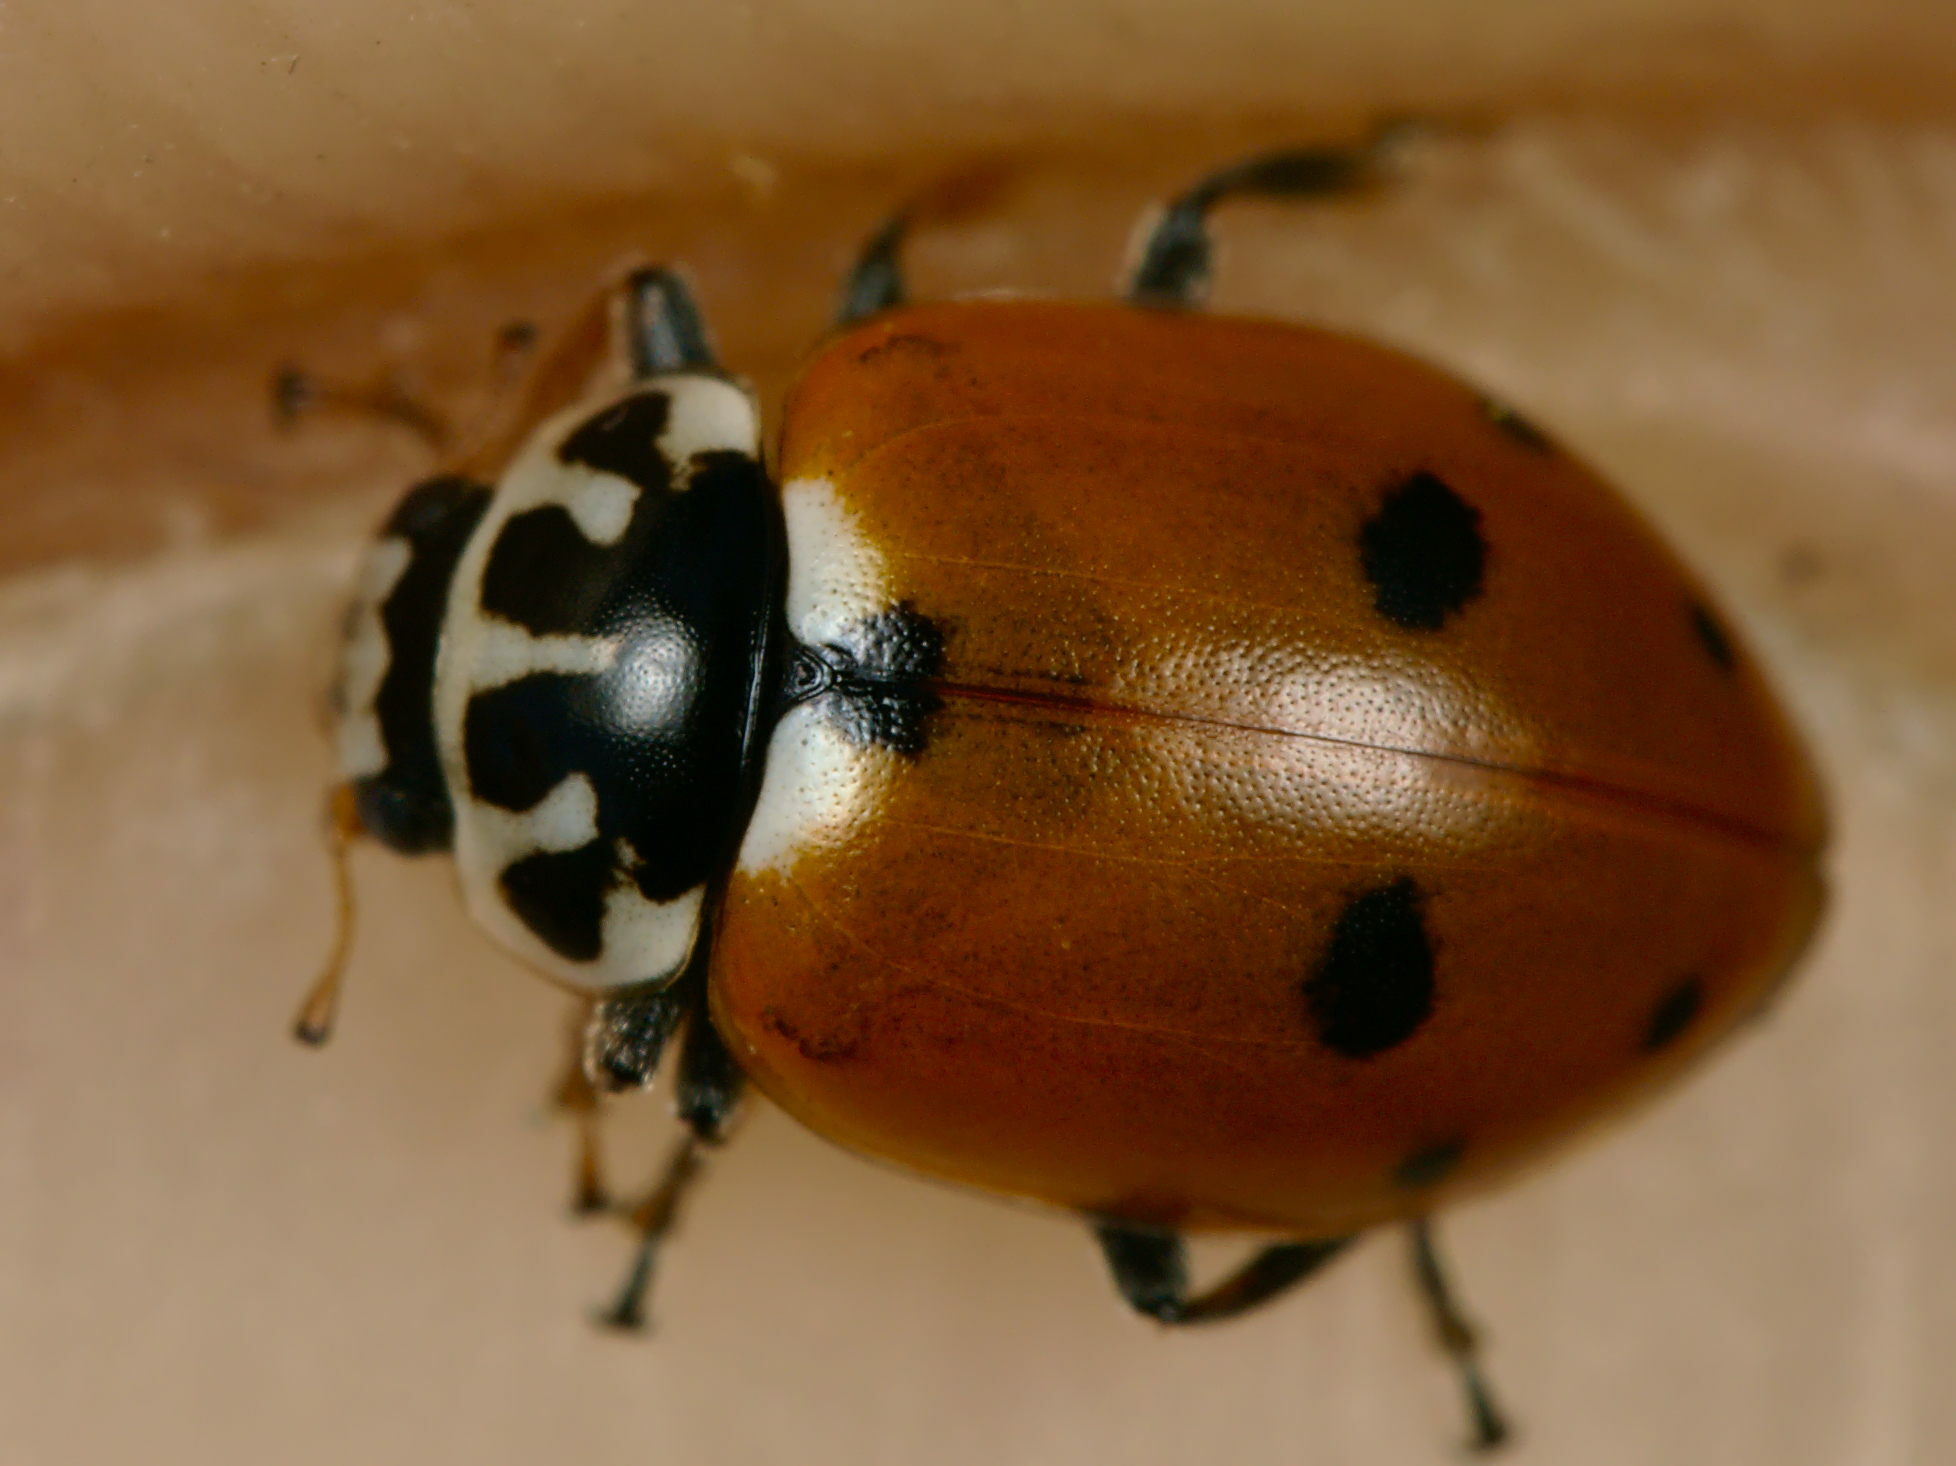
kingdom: Animalia
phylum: Arthropoda
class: Insecta
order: Coleoptera
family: Coccinellidae
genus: Hippodamia
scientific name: Hippodamia variegata
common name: Ladybird beetle
